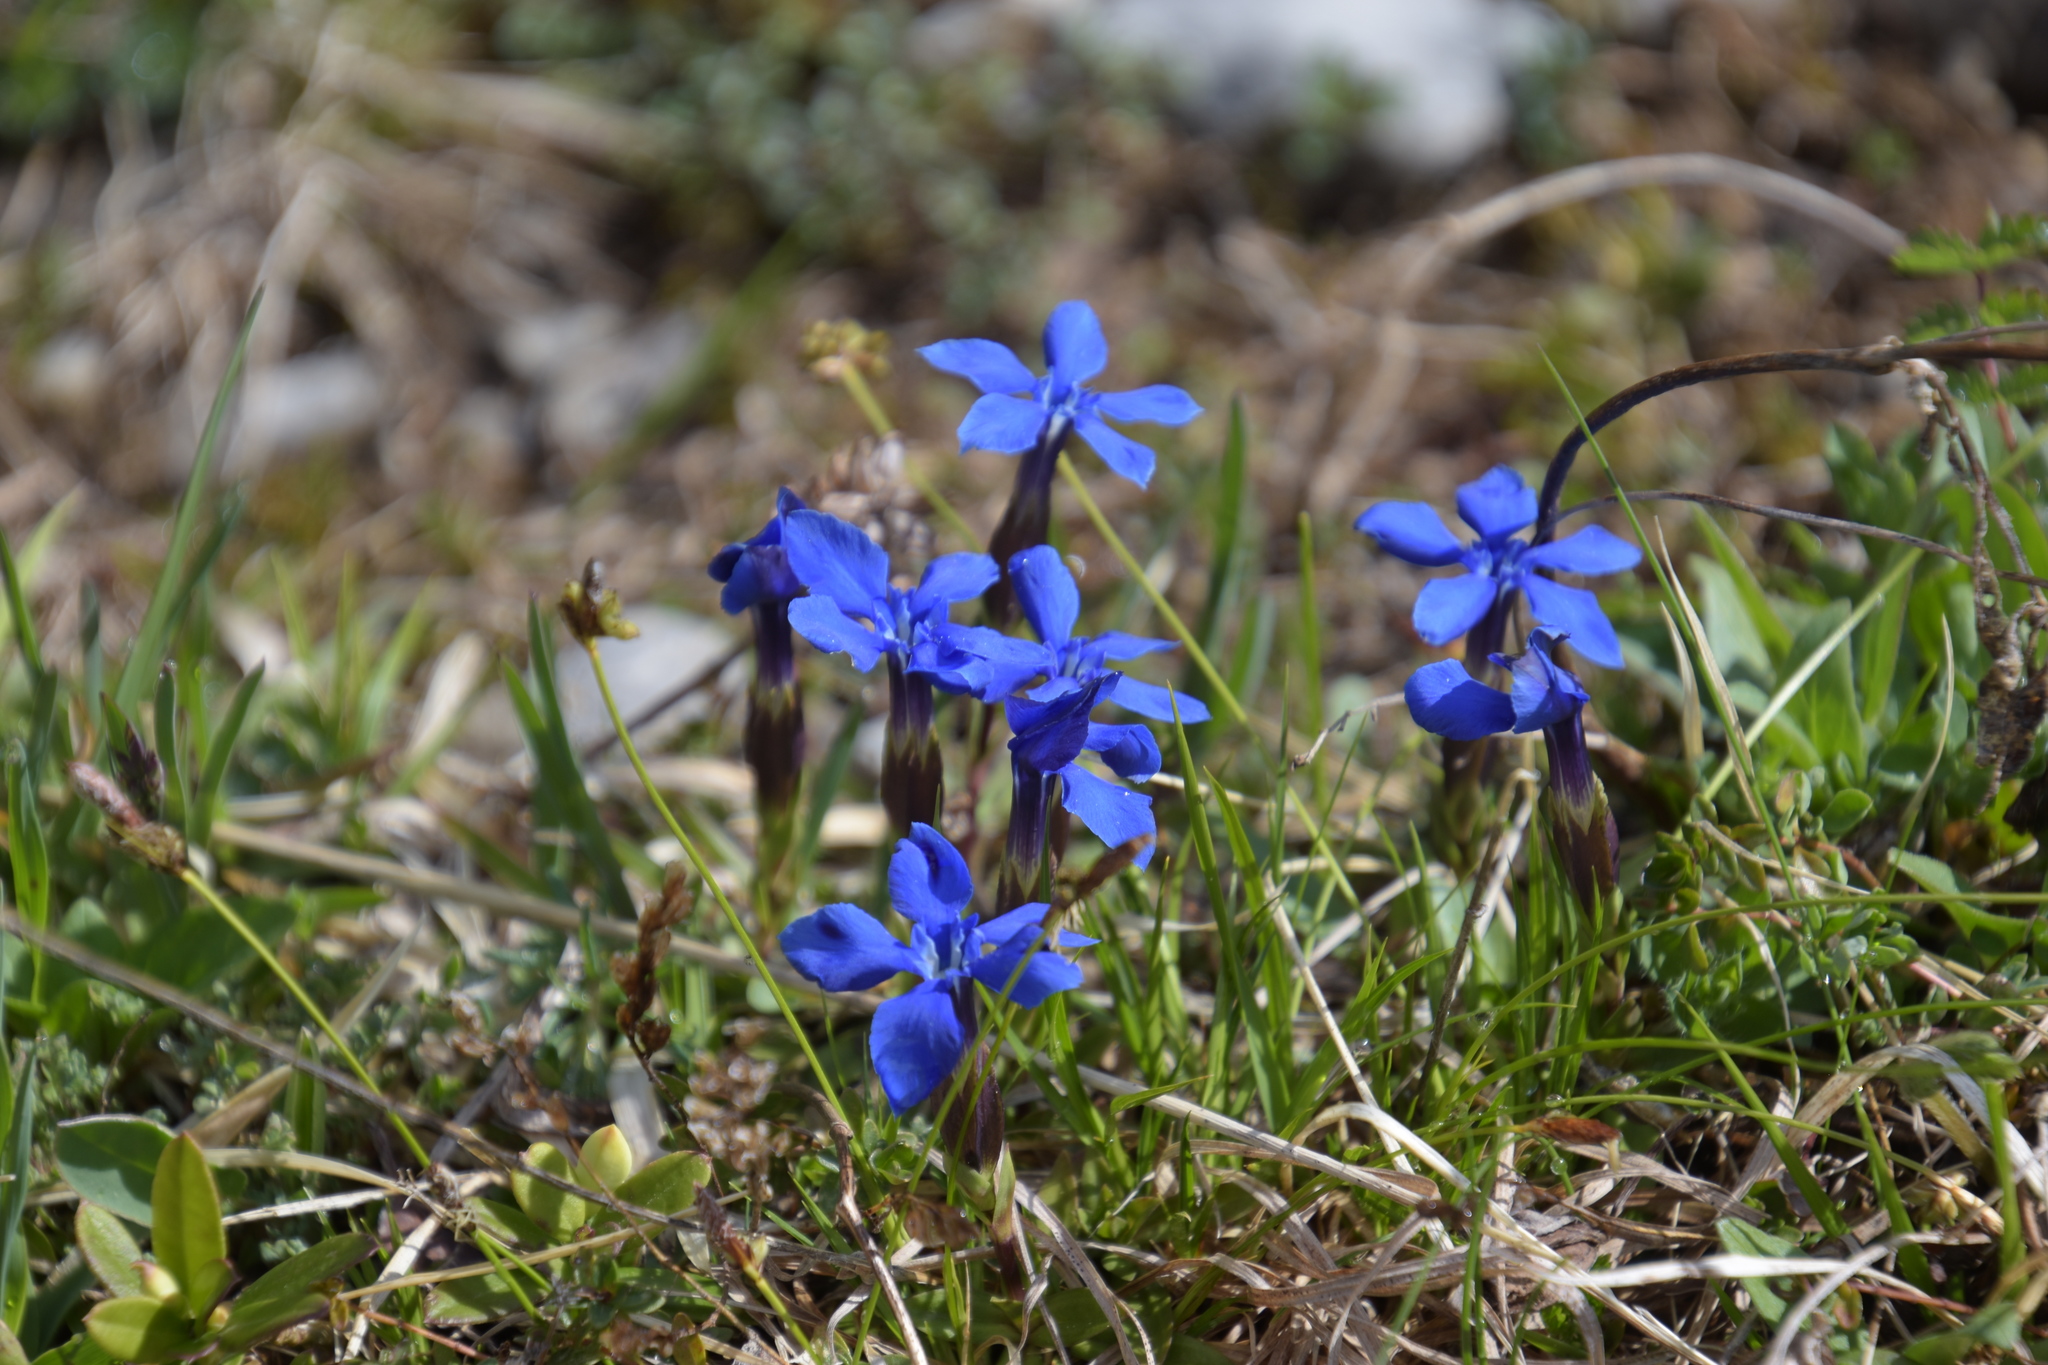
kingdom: Plantae
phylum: Tracheophyta
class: Magnoliopsida
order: Gentianales
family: Gentianaceae
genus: Gentiana
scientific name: Gentiana verna
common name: Spring gentian
